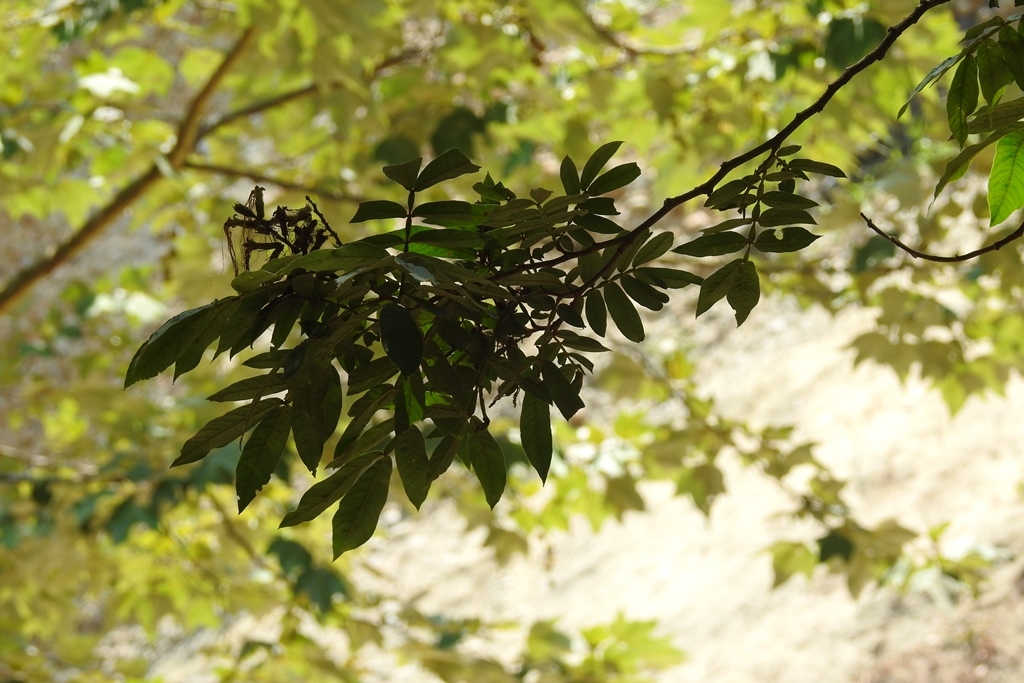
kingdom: Plantae
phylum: Tracheophyta
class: Magnoliopsida
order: Fabales
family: Fabaceae
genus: Inga
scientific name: Inga laurina
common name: Red wood
